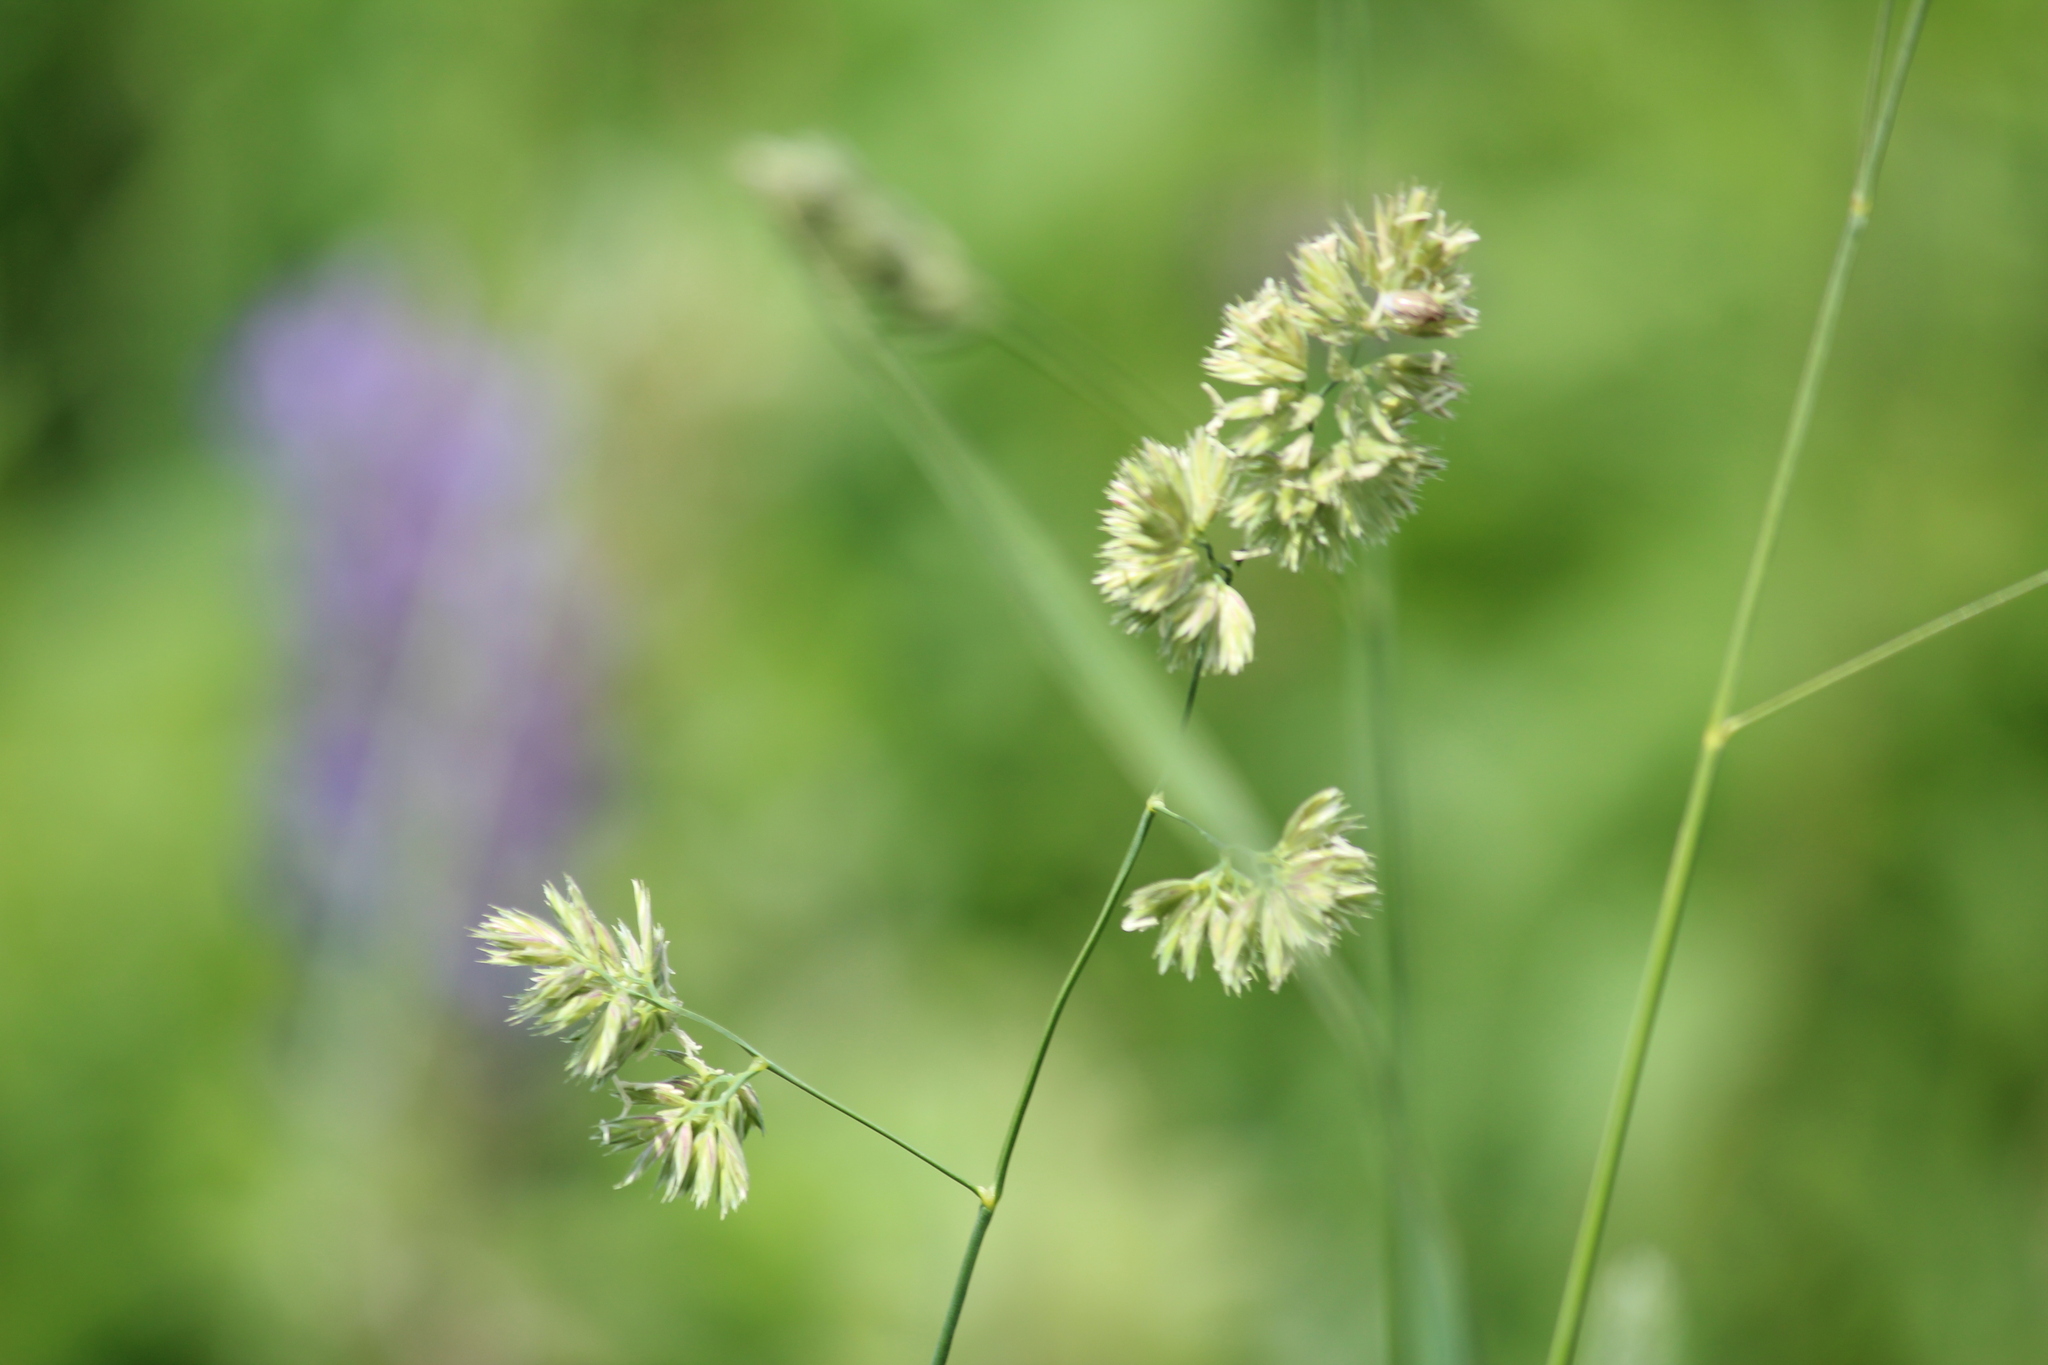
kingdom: Plantae
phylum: Tracheophyta
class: Liliopsida
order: Poales
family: Poaceae
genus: Dactylis
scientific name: Dactylis glomerata
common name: Orchardgrass
